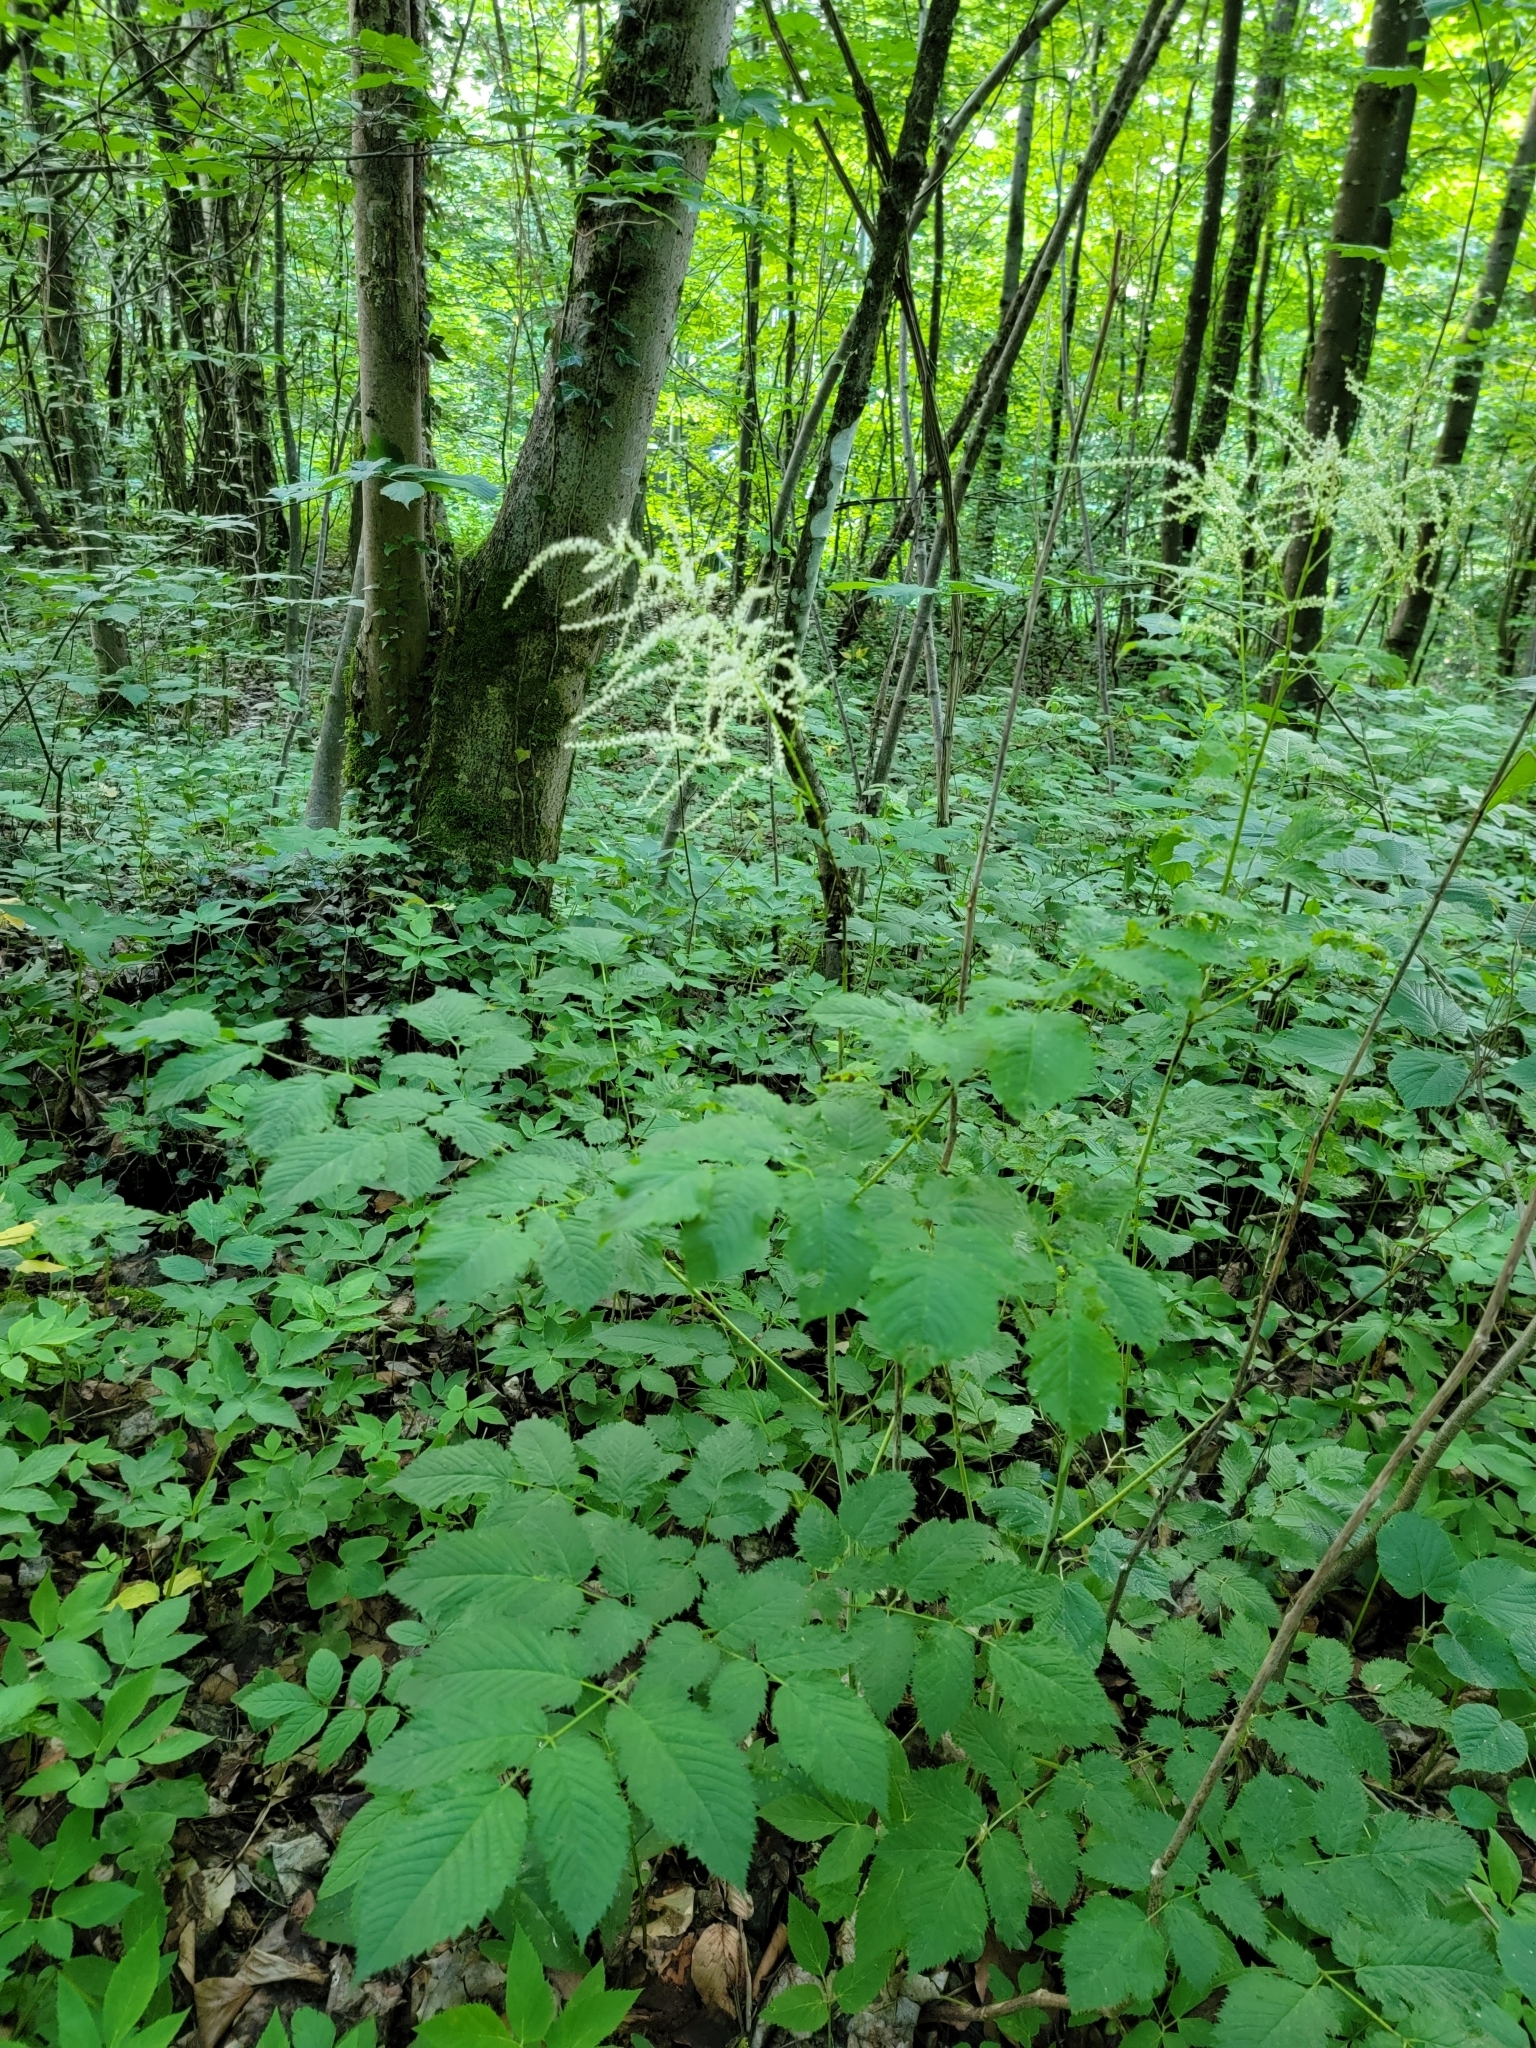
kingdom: Plantae
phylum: Tracheophyta
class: Magnoliopsida
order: Rosales
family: Rosaceae
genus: Aruncus
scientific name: Aruncus dioicus
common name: Buck's-beard
